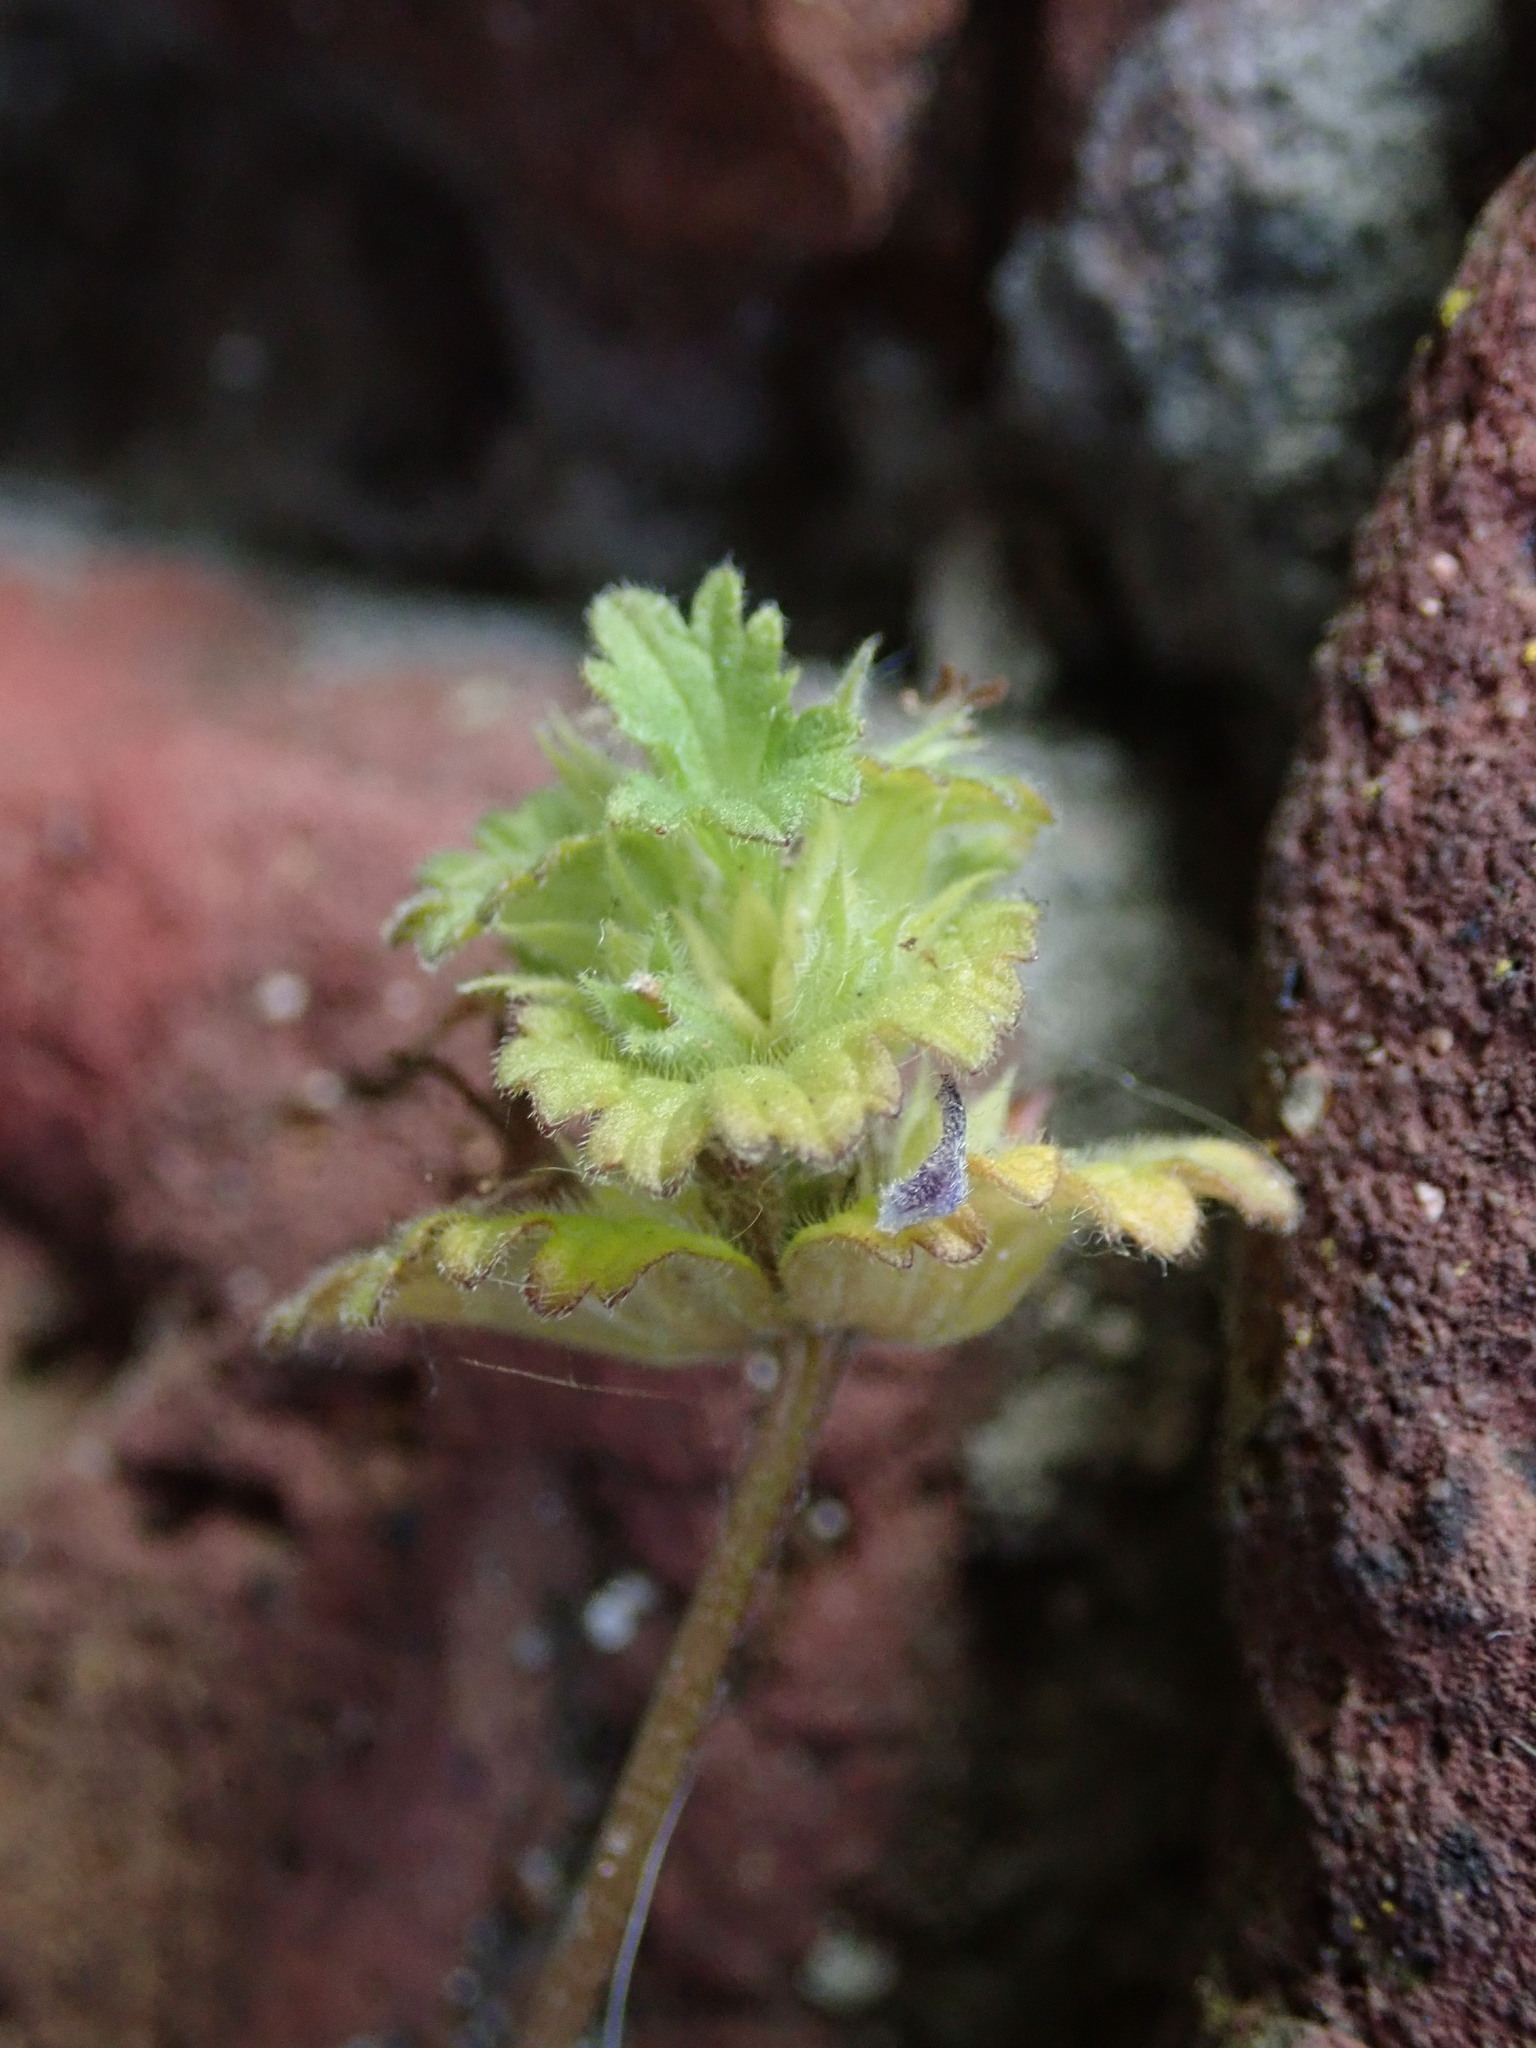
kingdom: Plantae
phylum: Tracheophyta
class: Magnoliopsida
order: Lamiales
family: Lamiaceae
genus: Lamium
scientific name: Lamium amplexicaule
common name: Henbit dead-nettle
